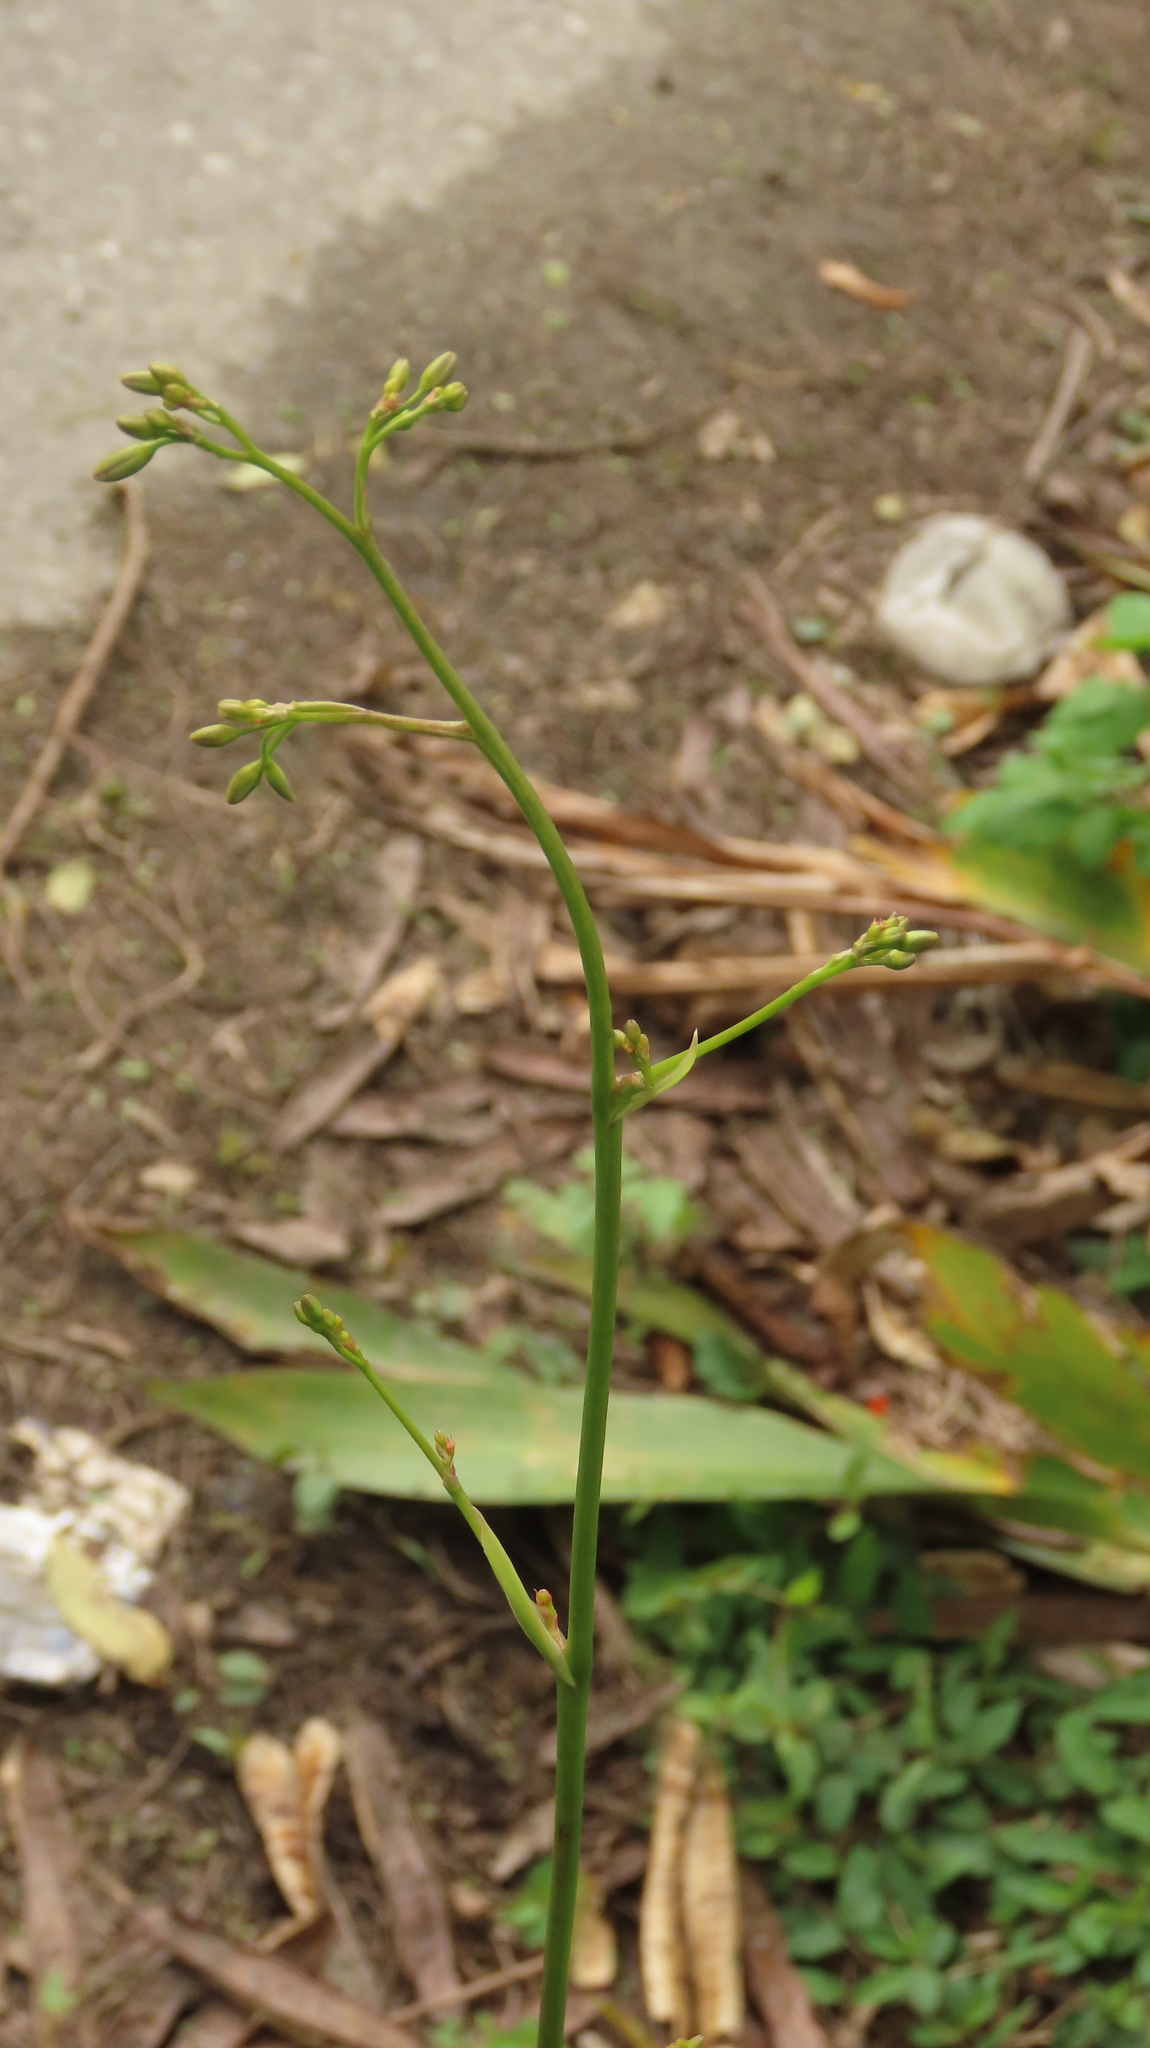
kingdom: Plantae
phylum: Tracheophyta
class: Liliopsida
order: Asparagales
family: Asphodelaceae
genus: Dianella
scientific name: Dianella ensifolia
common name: New zealand lilyplant
